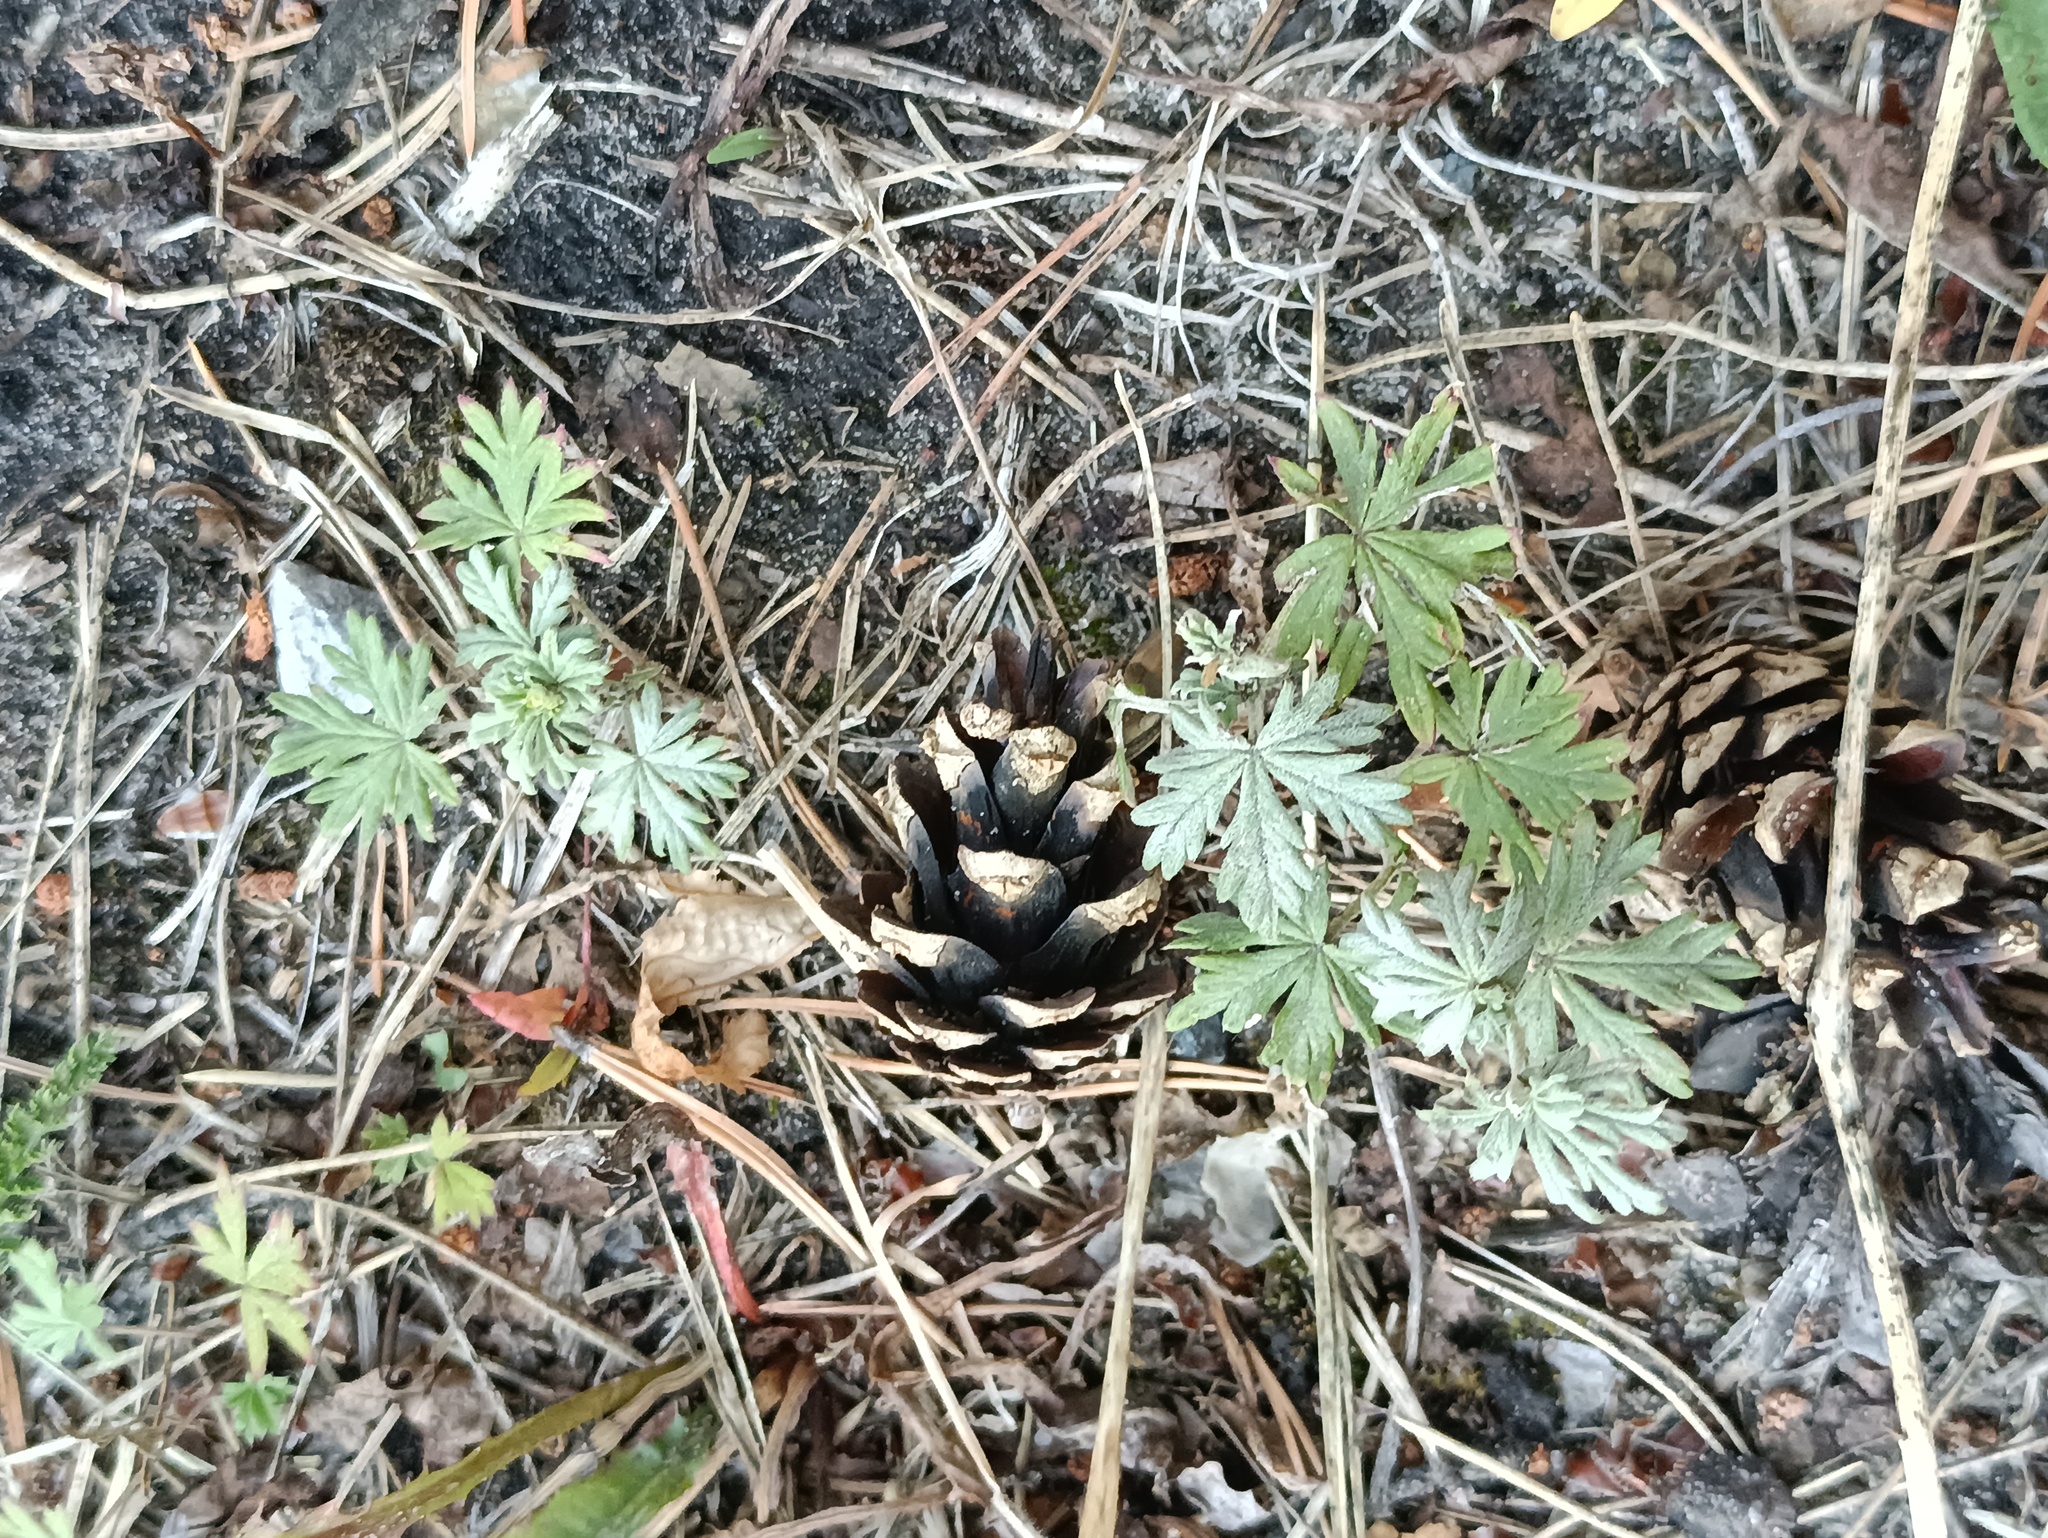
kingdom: Plantae
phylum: Tracheophyta
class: Magnoliopsida
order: Rosales
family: Rosaceae
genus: Potentilla
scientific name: Potentilla argentea
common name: Hoary cinquefoil
